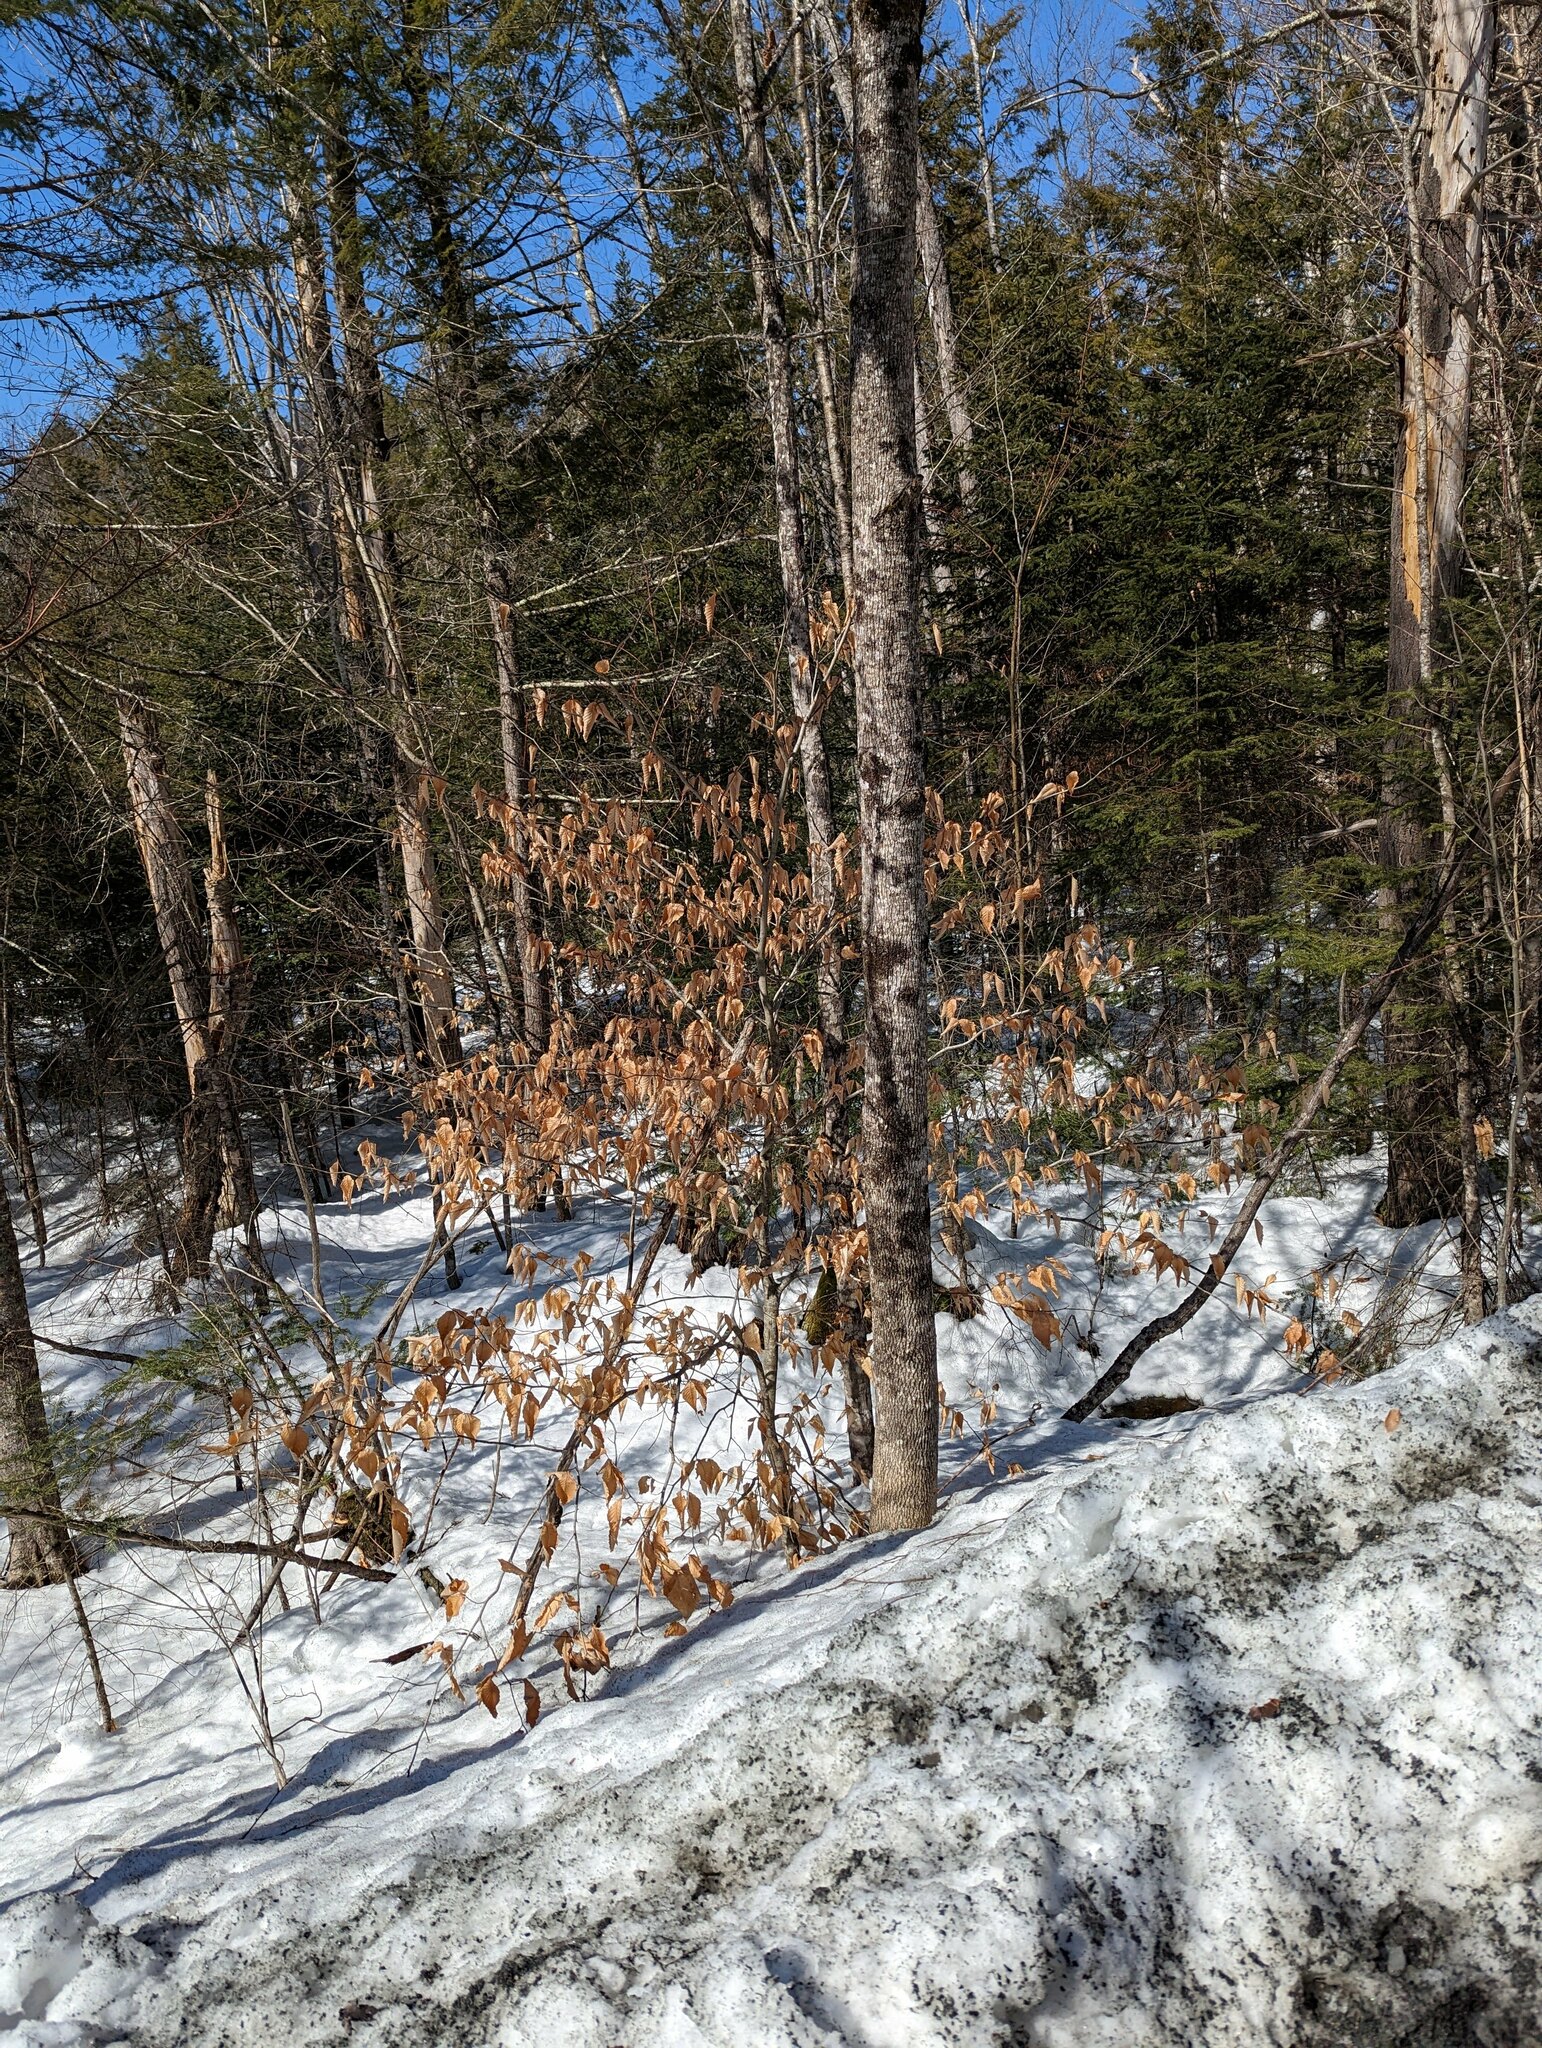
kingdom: Plantae
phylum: Tracheophyta
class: Magnoliopsida
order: Fagales
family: Fagaceae
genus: Fagus
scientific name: Fagus grandifolia
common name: American beech
